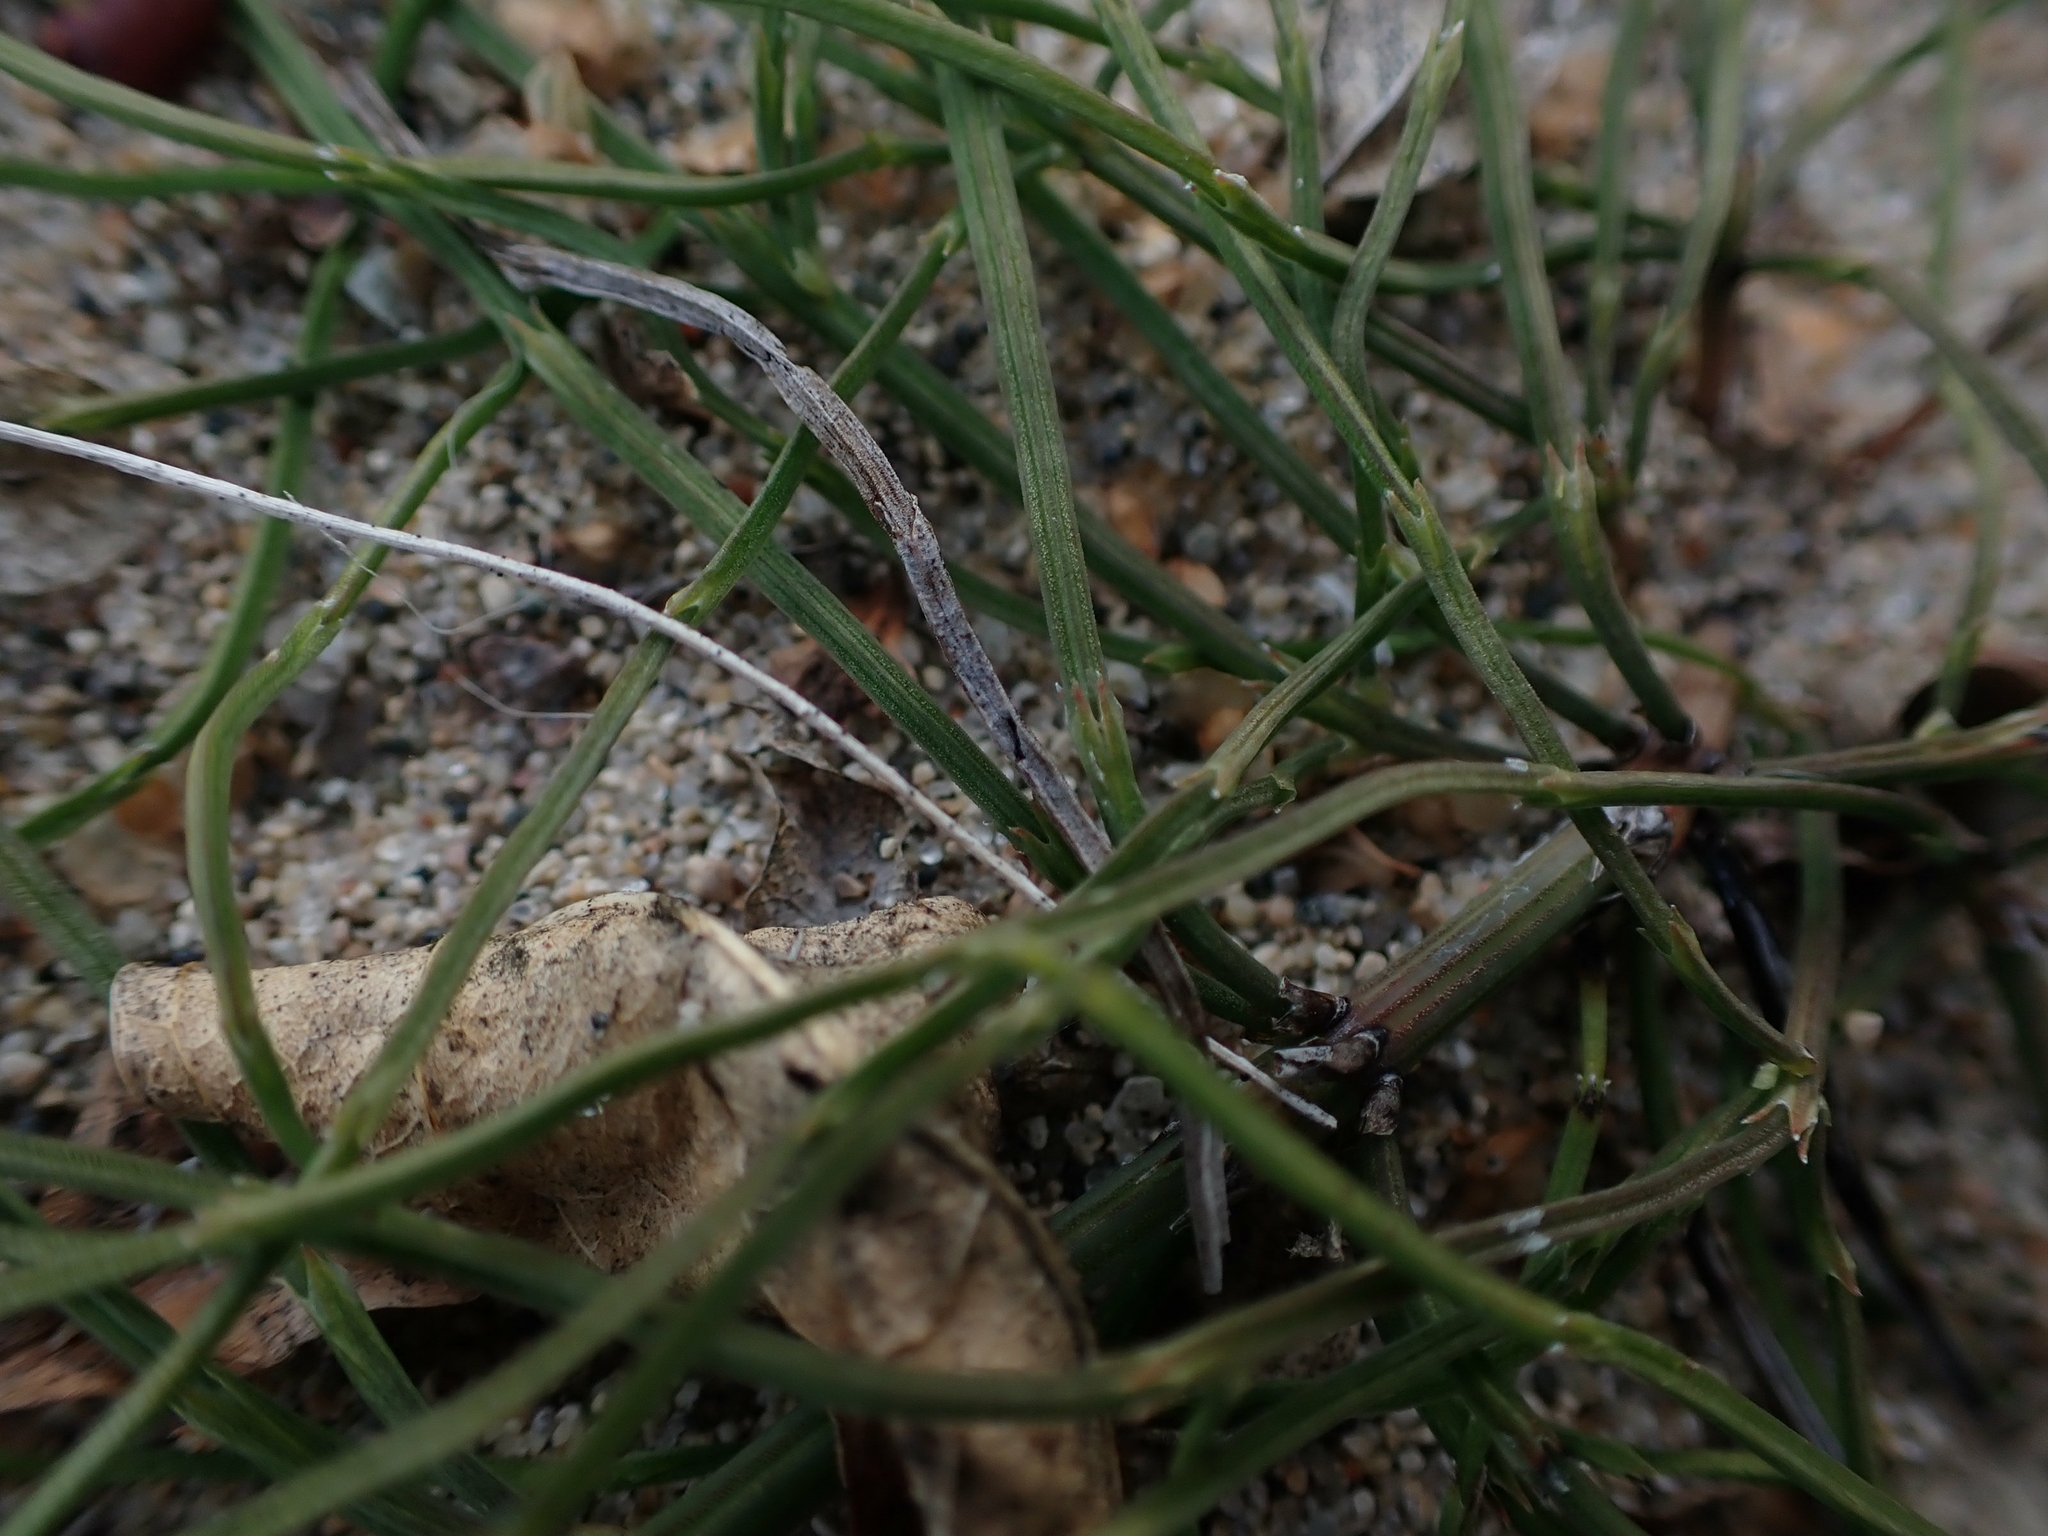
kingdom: Plantae
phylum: Tracheophyta
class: Polypodiopsida
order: Equisetales
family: Equisetaceae
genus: Equisetum
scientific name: Equisetum arvense
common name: Field horsetail
